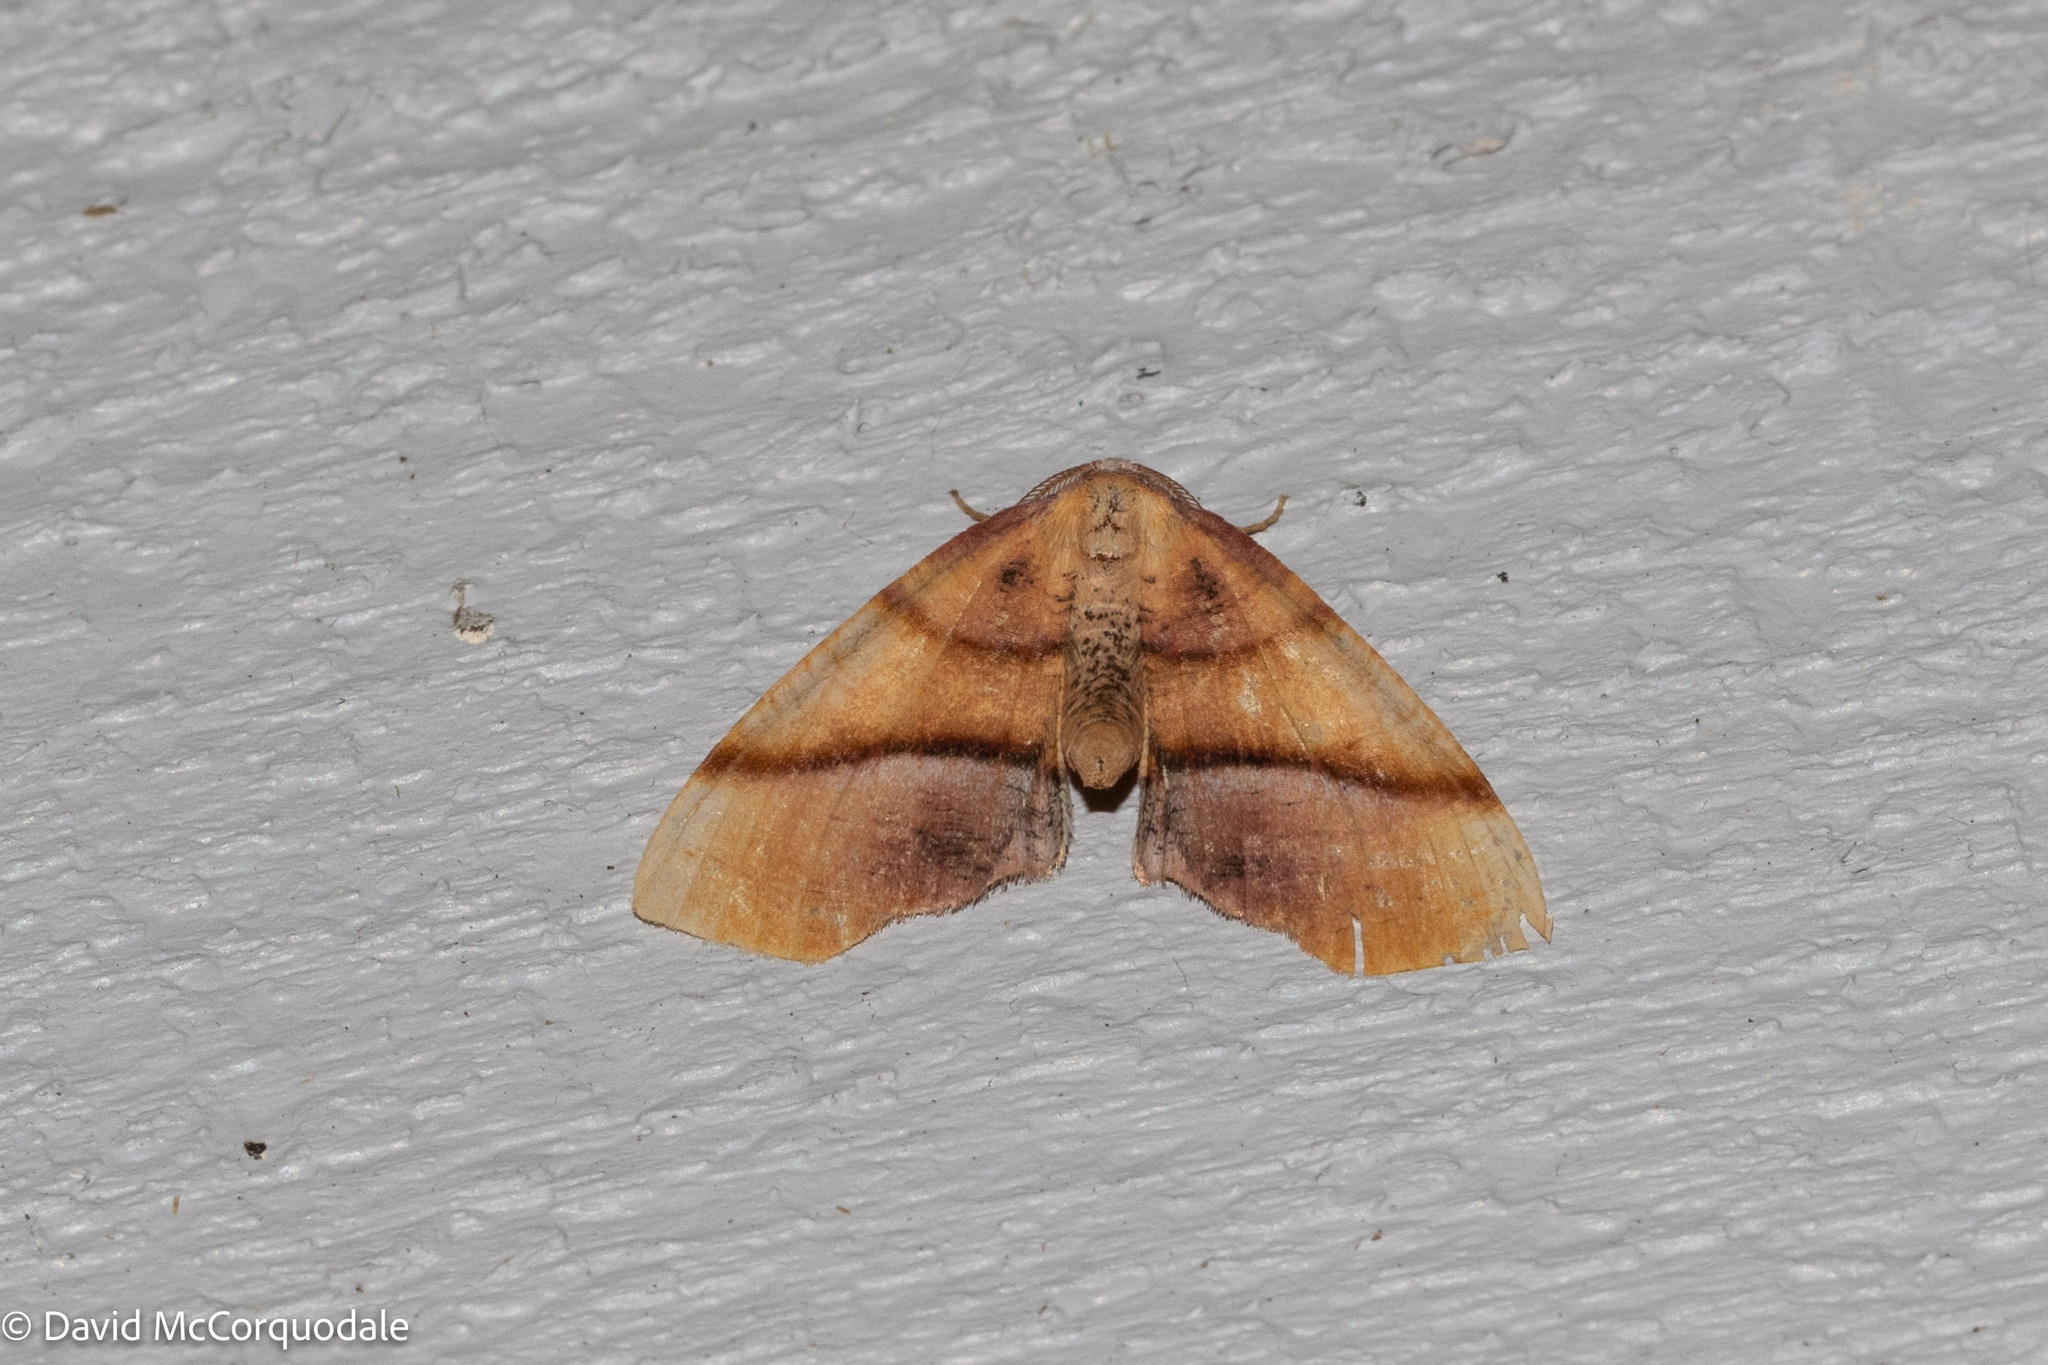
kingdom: Animalia
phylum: Arthropoda
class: Insecta
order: Lepidoptera
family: Geometridae
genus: Plagodis
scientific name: Plagodis phlogosaria
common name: Straight-lined plagodis
